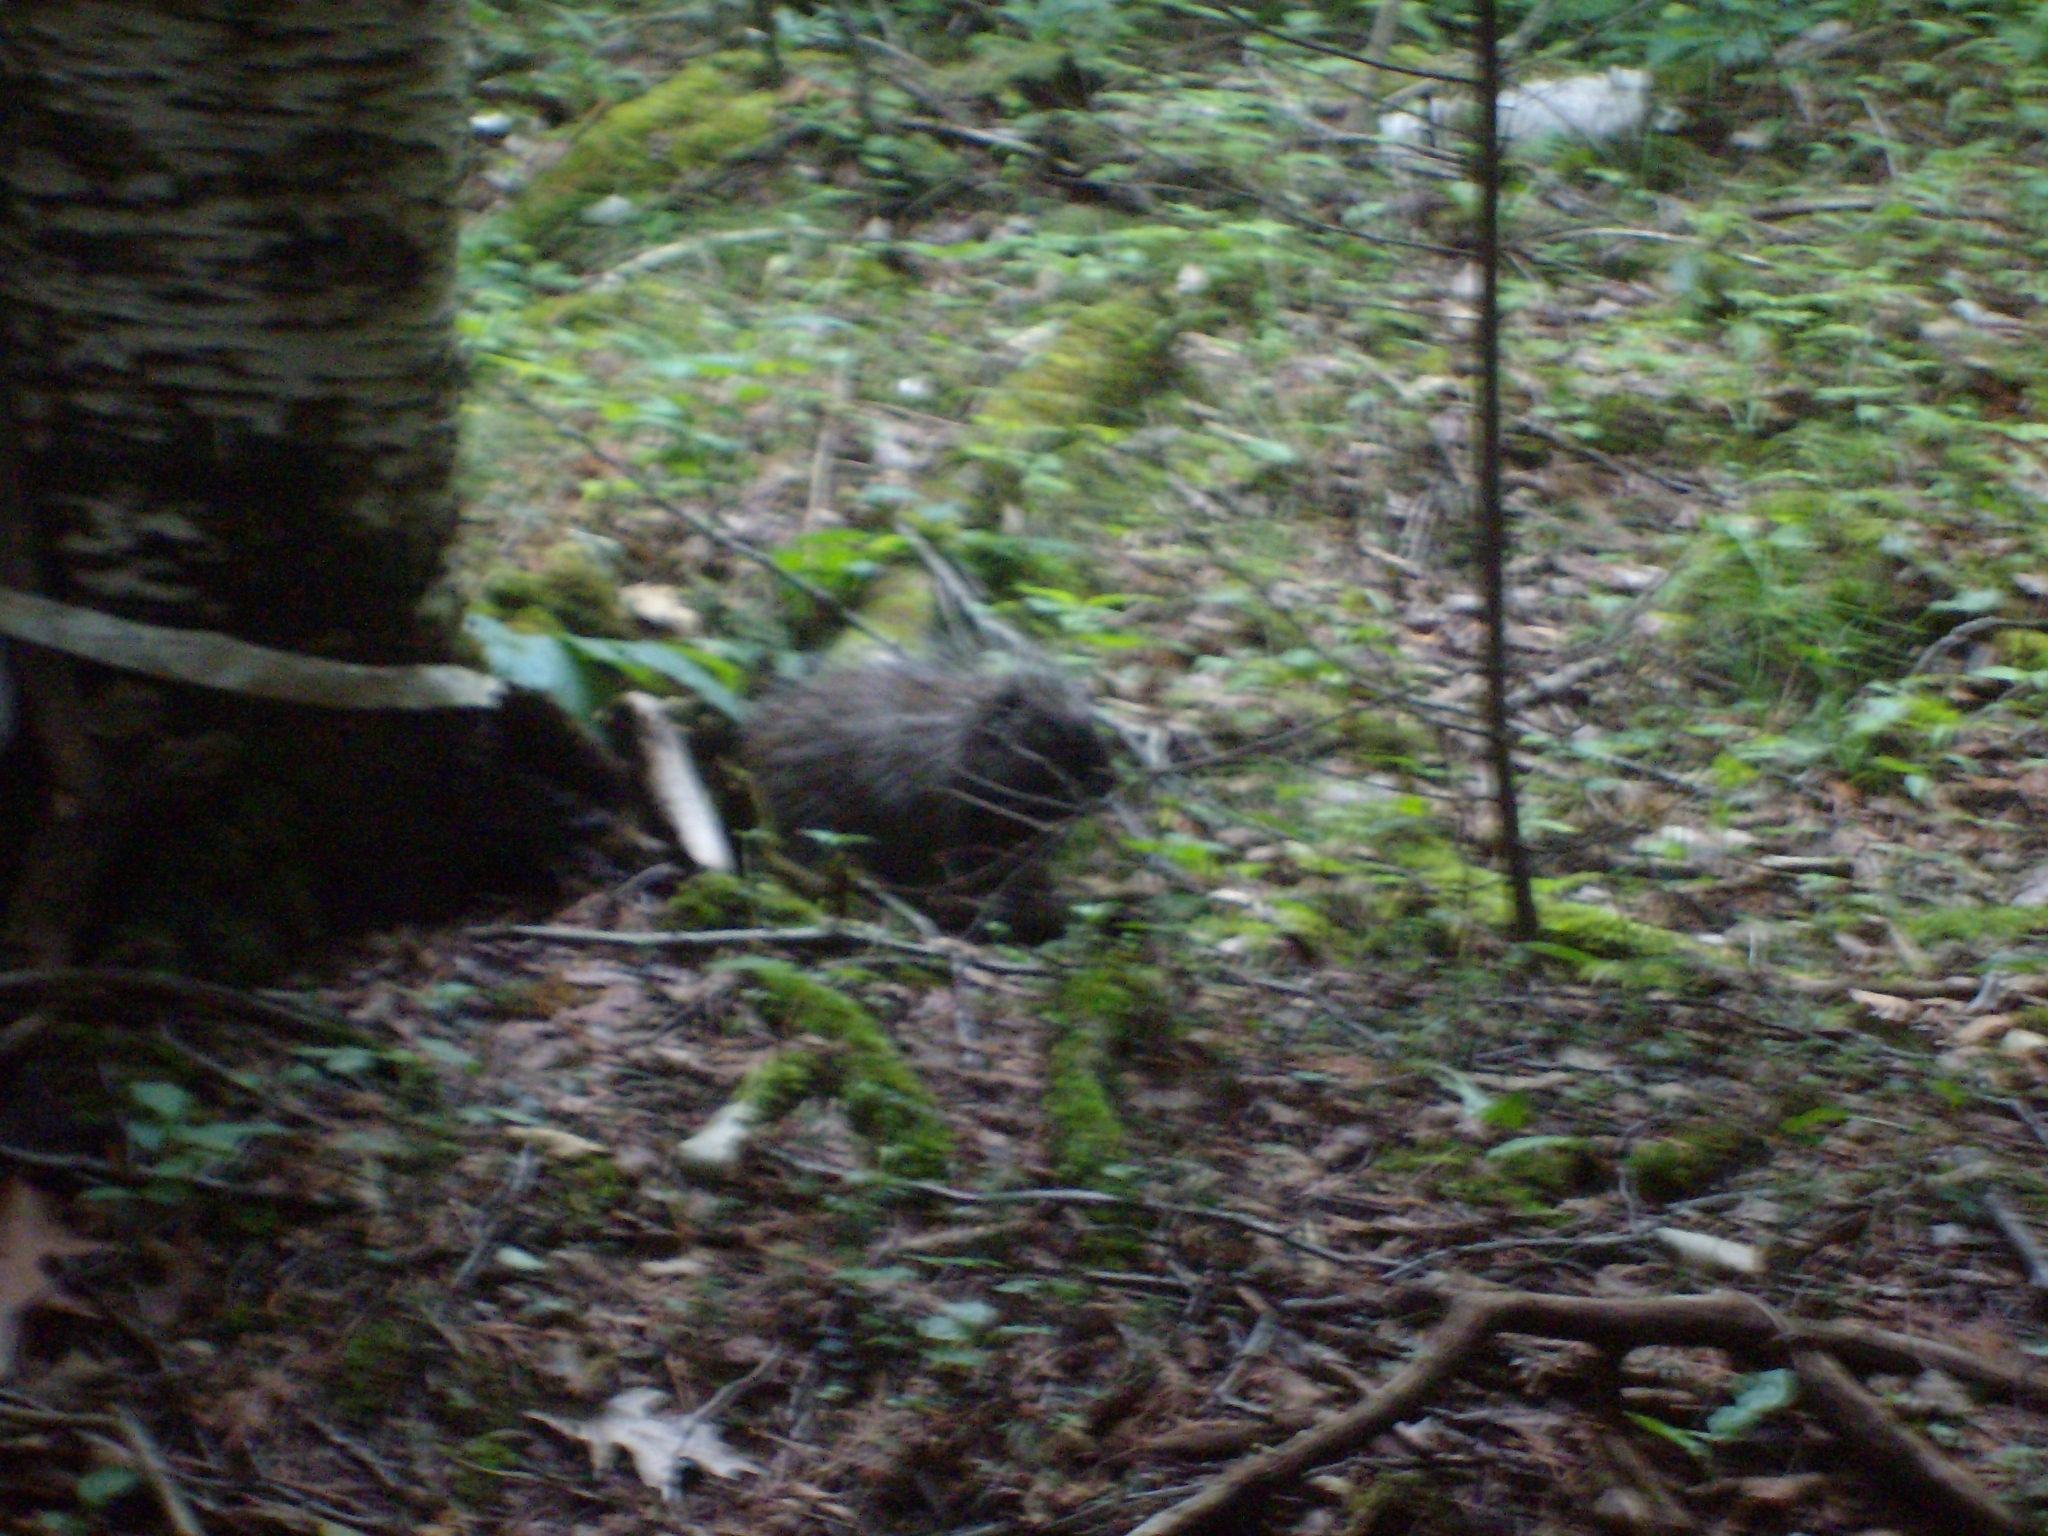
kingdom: Animalia
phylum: Chordata
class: Mammalia
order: Rodentia
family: Erethizontidae
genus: Erethizon
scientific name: Erethizon dorsatus
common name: North american porcupine
